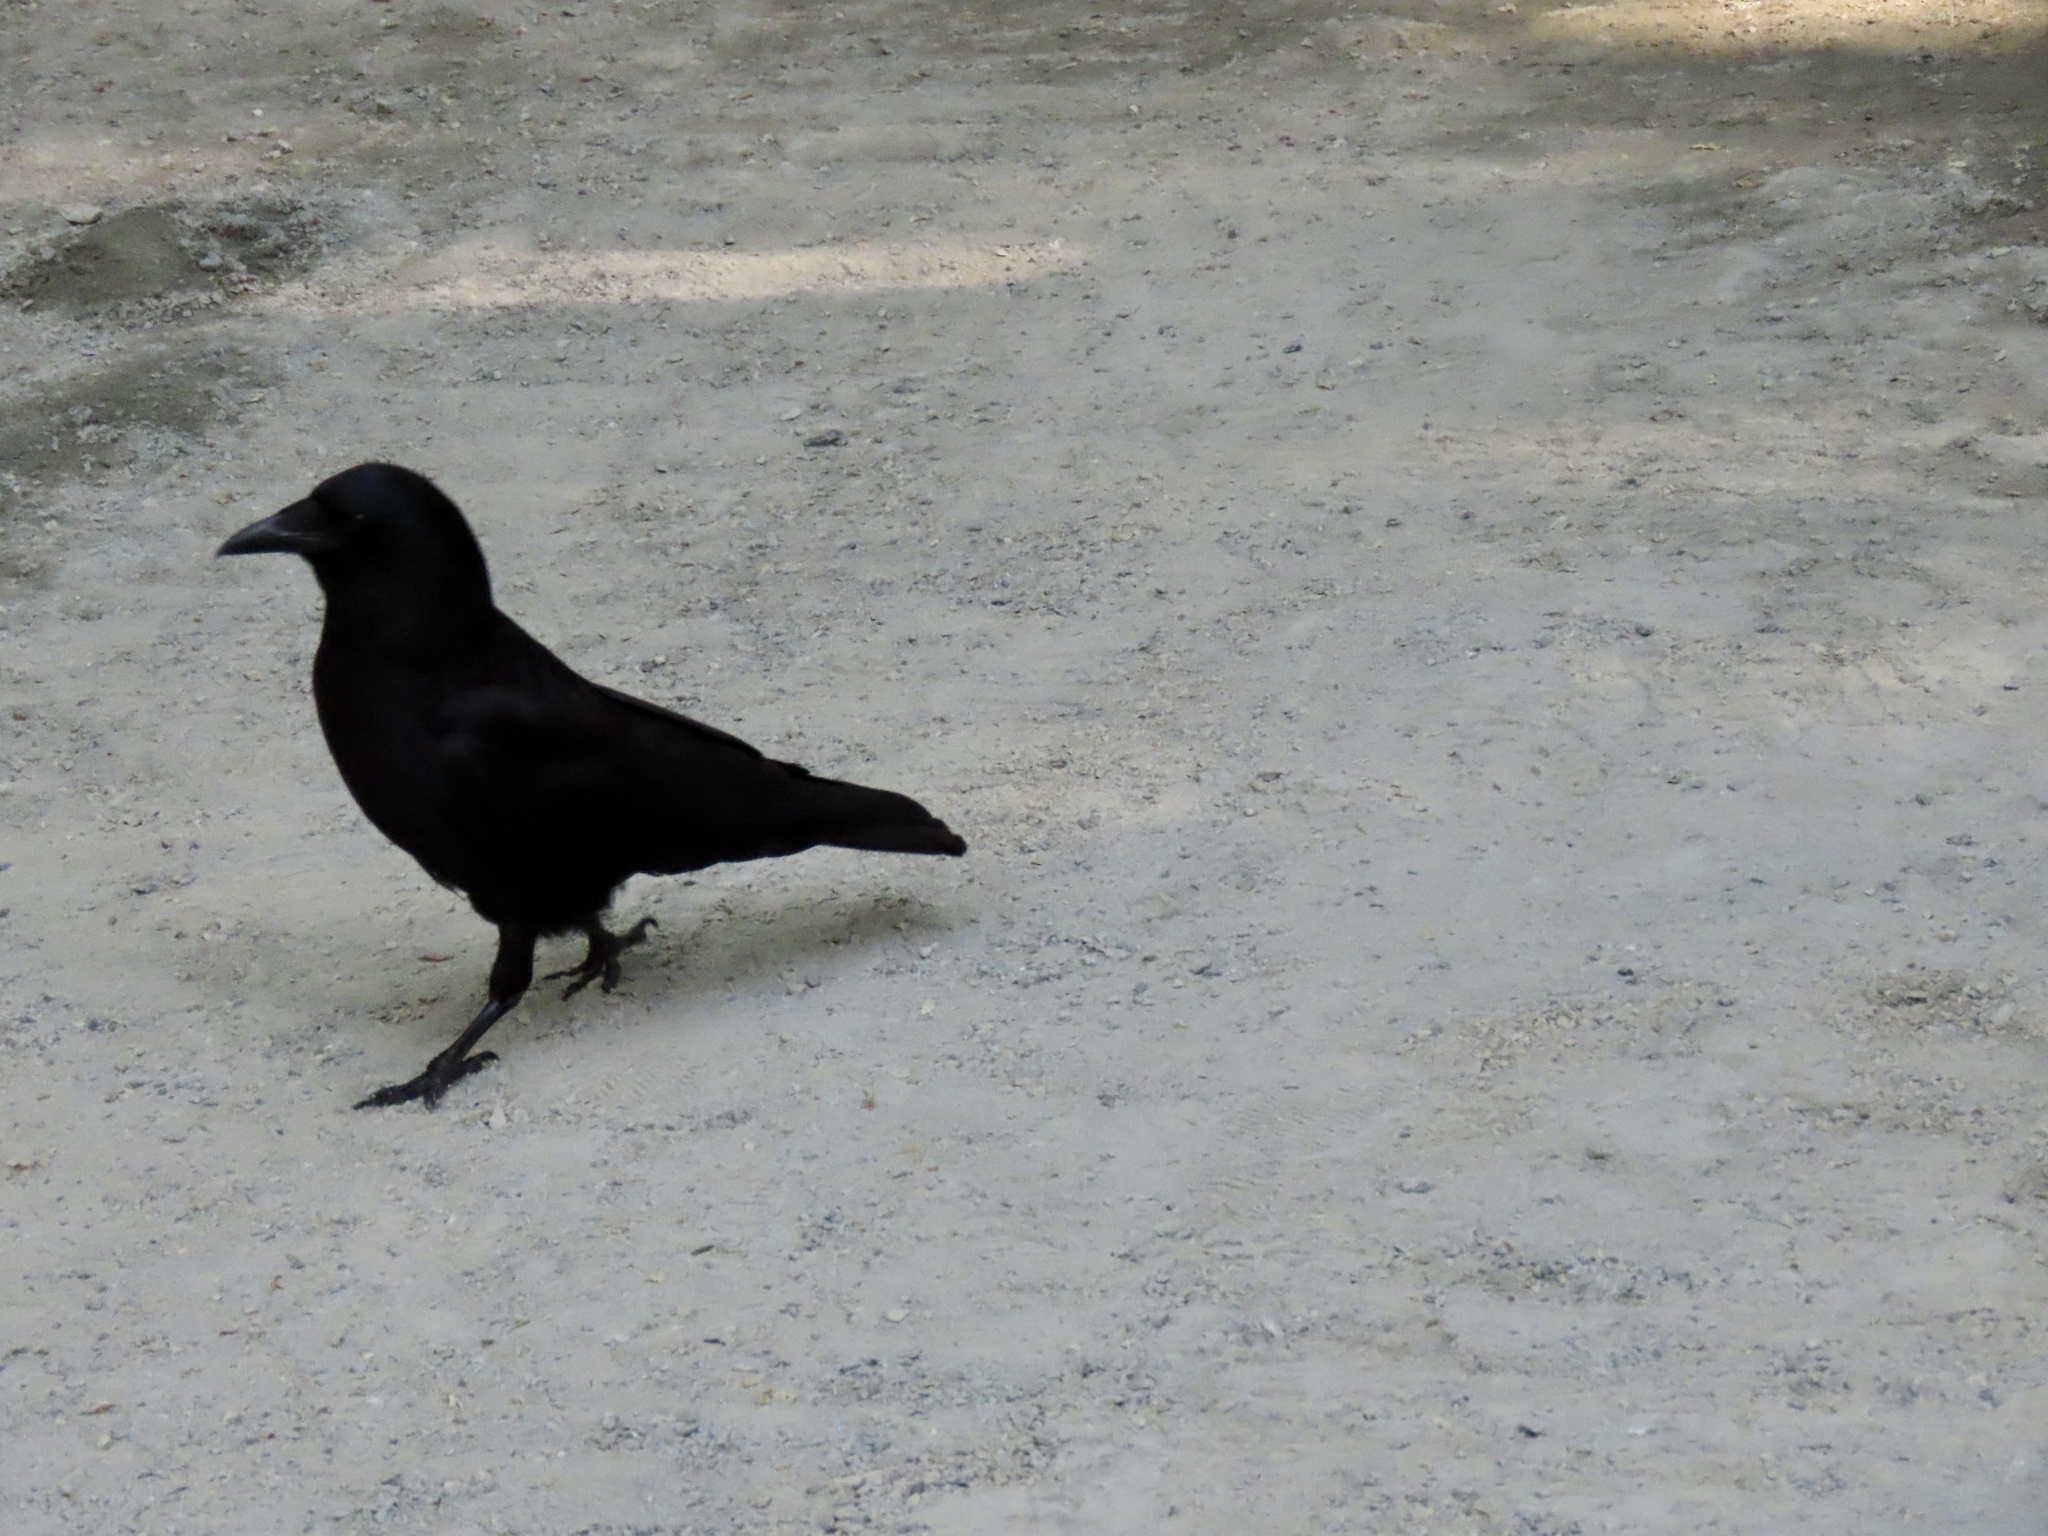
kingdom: Animalia
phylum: Chordata
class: Aves
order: Passeriformes
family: Corvidae
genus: Corvus
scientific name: Corvus brachyrhynchos
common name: American crow
